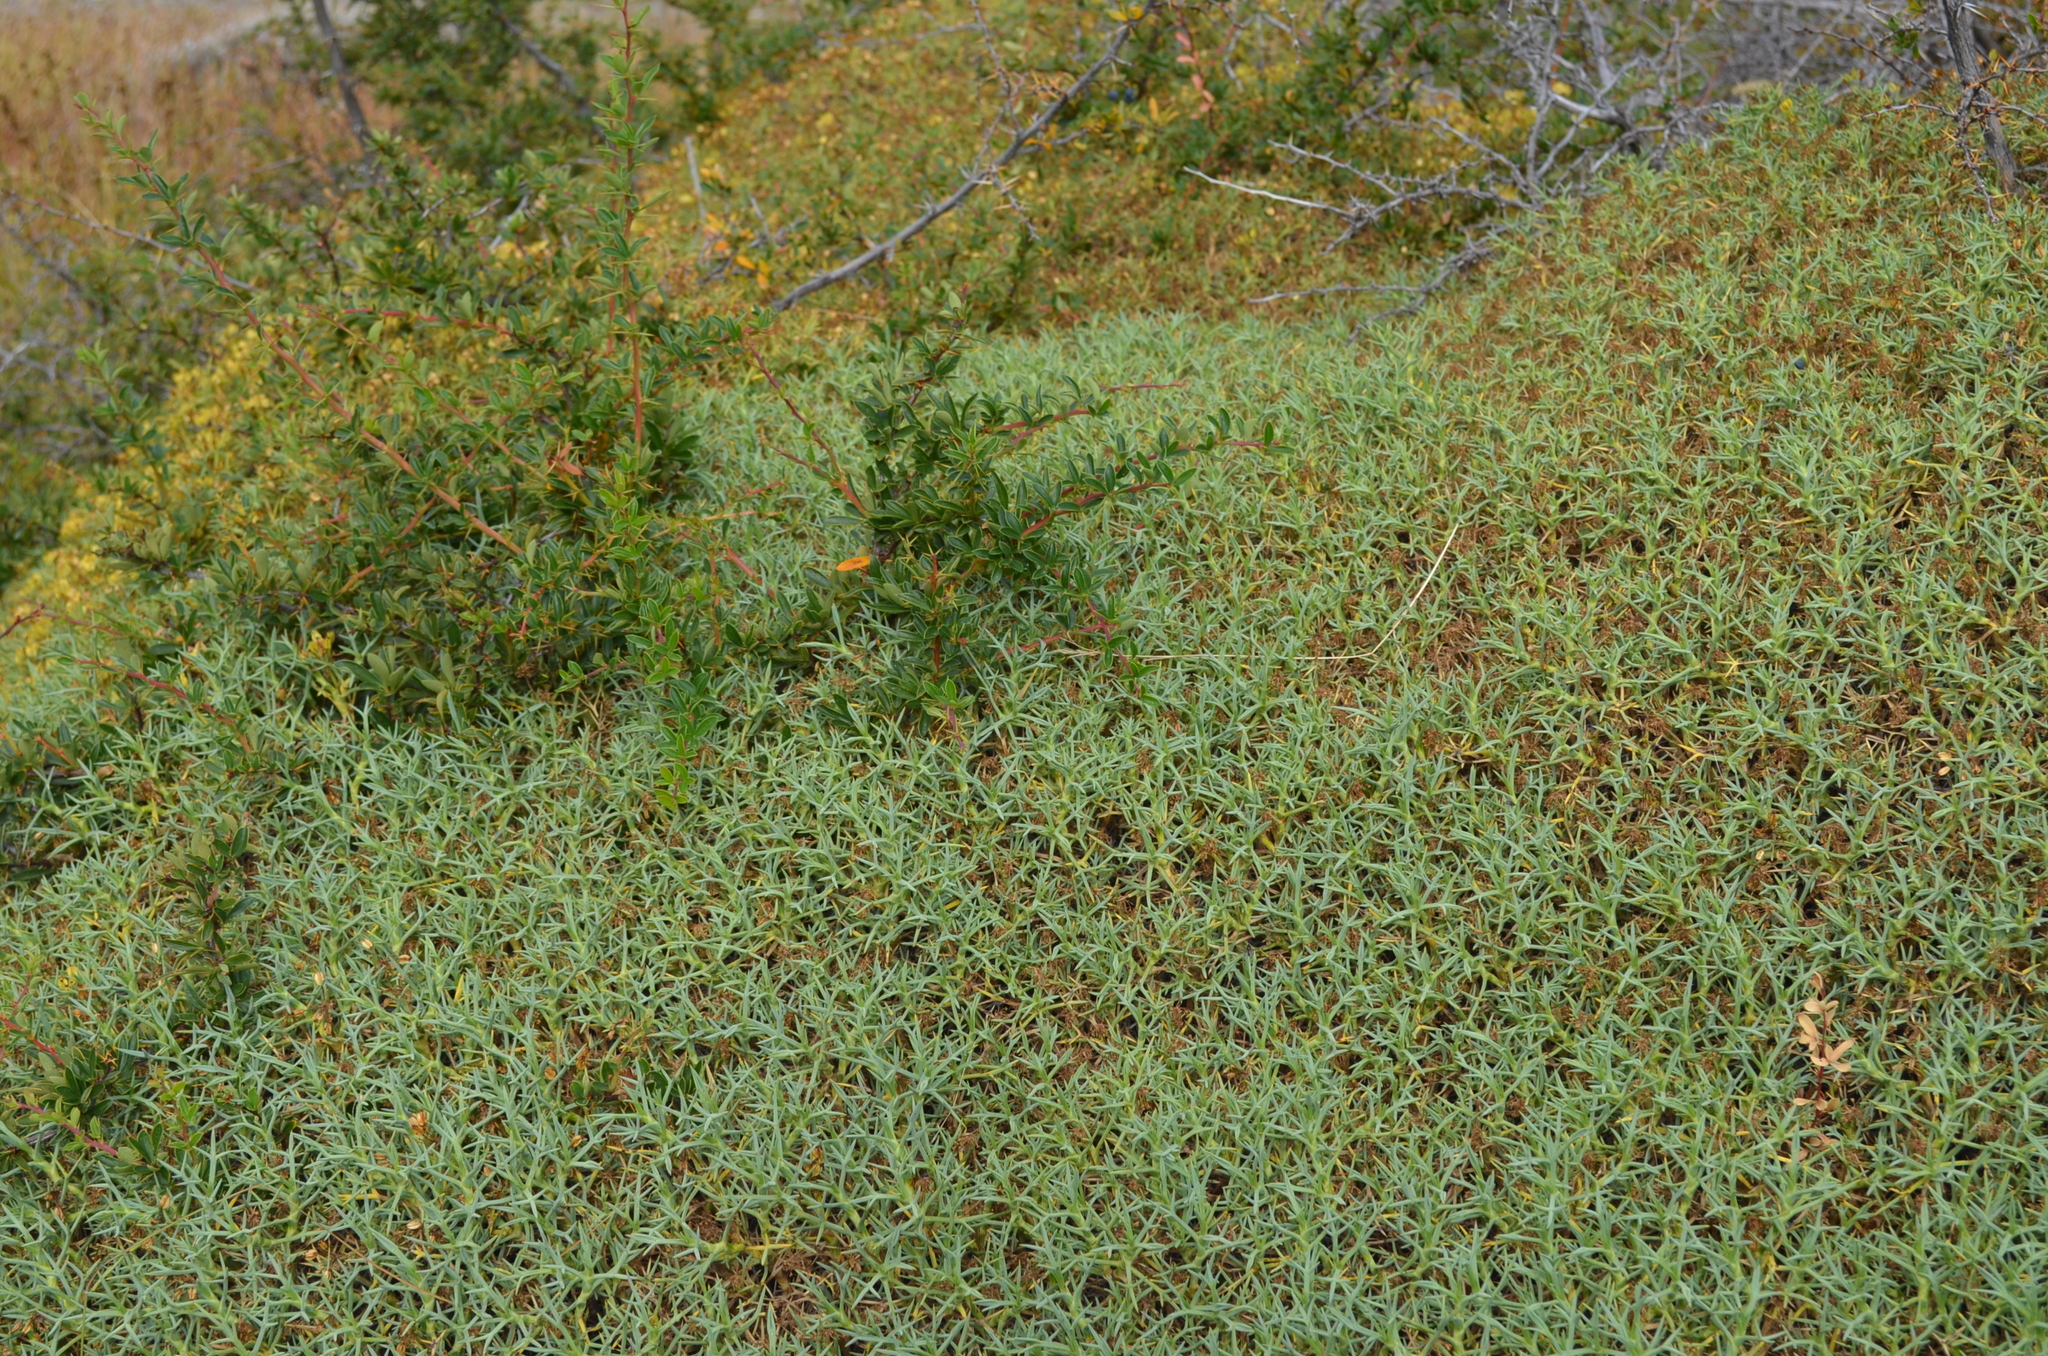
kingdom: Plantae
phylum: Tracheophyta
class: Magnoliopsida
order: Apiales
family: Apiaceae
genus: Azorella
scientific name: Azorella prolifera
